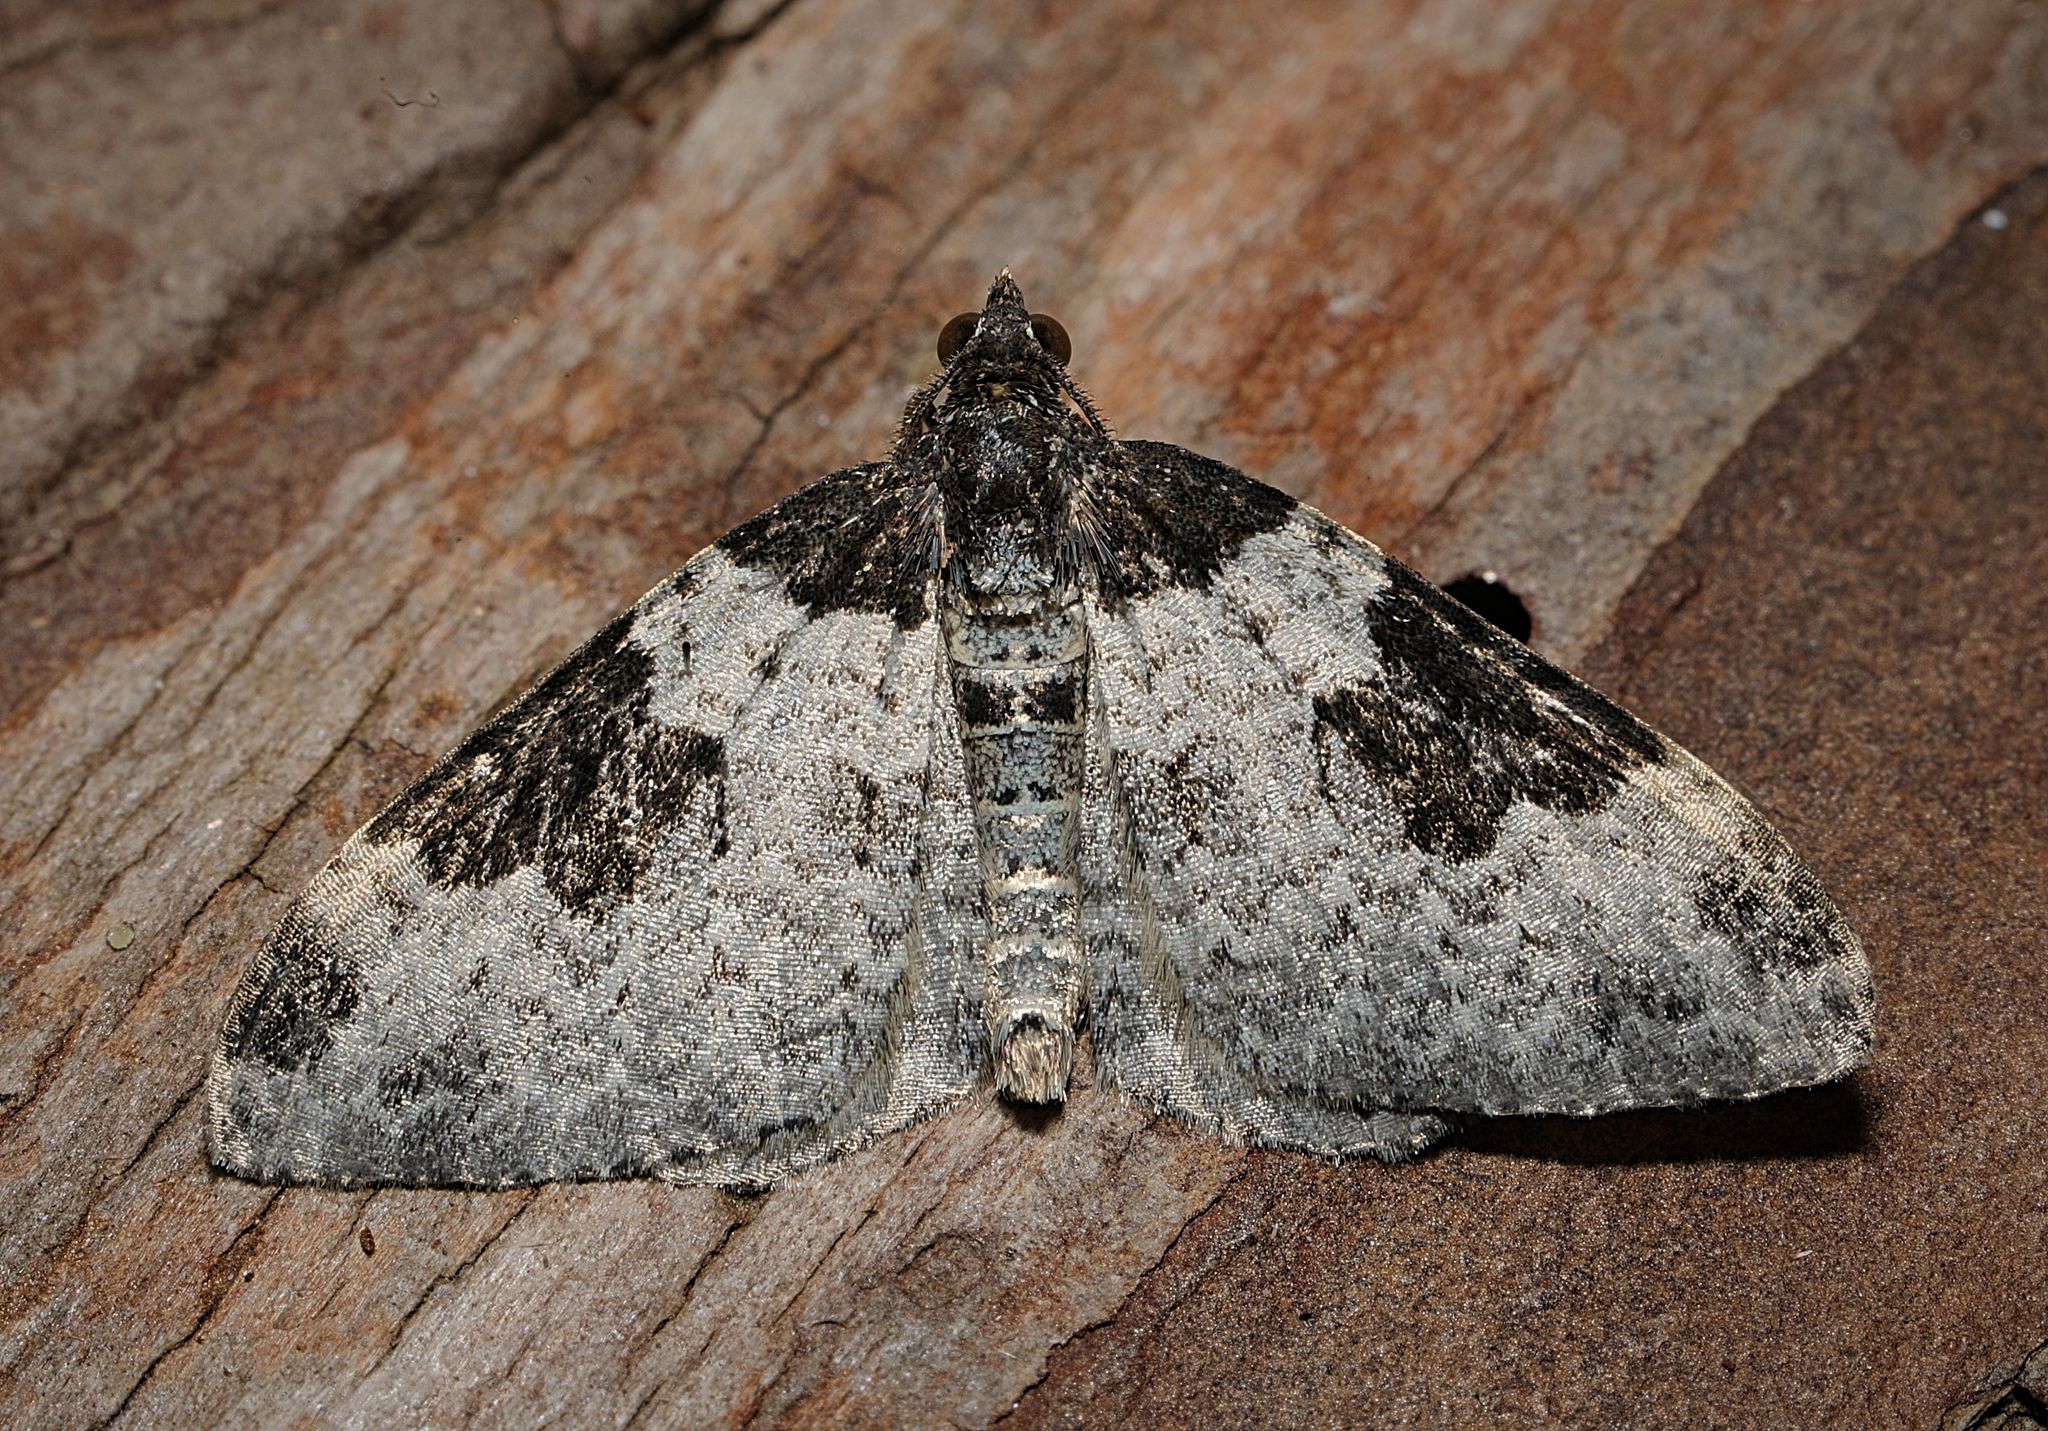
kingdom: Animalia
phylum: Arthropoda
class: Insecta
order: Lepidoptera
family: Geometridae
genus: Xanthorhoe
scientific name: Xanthorhoe fluctuata
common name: Garden carpet
